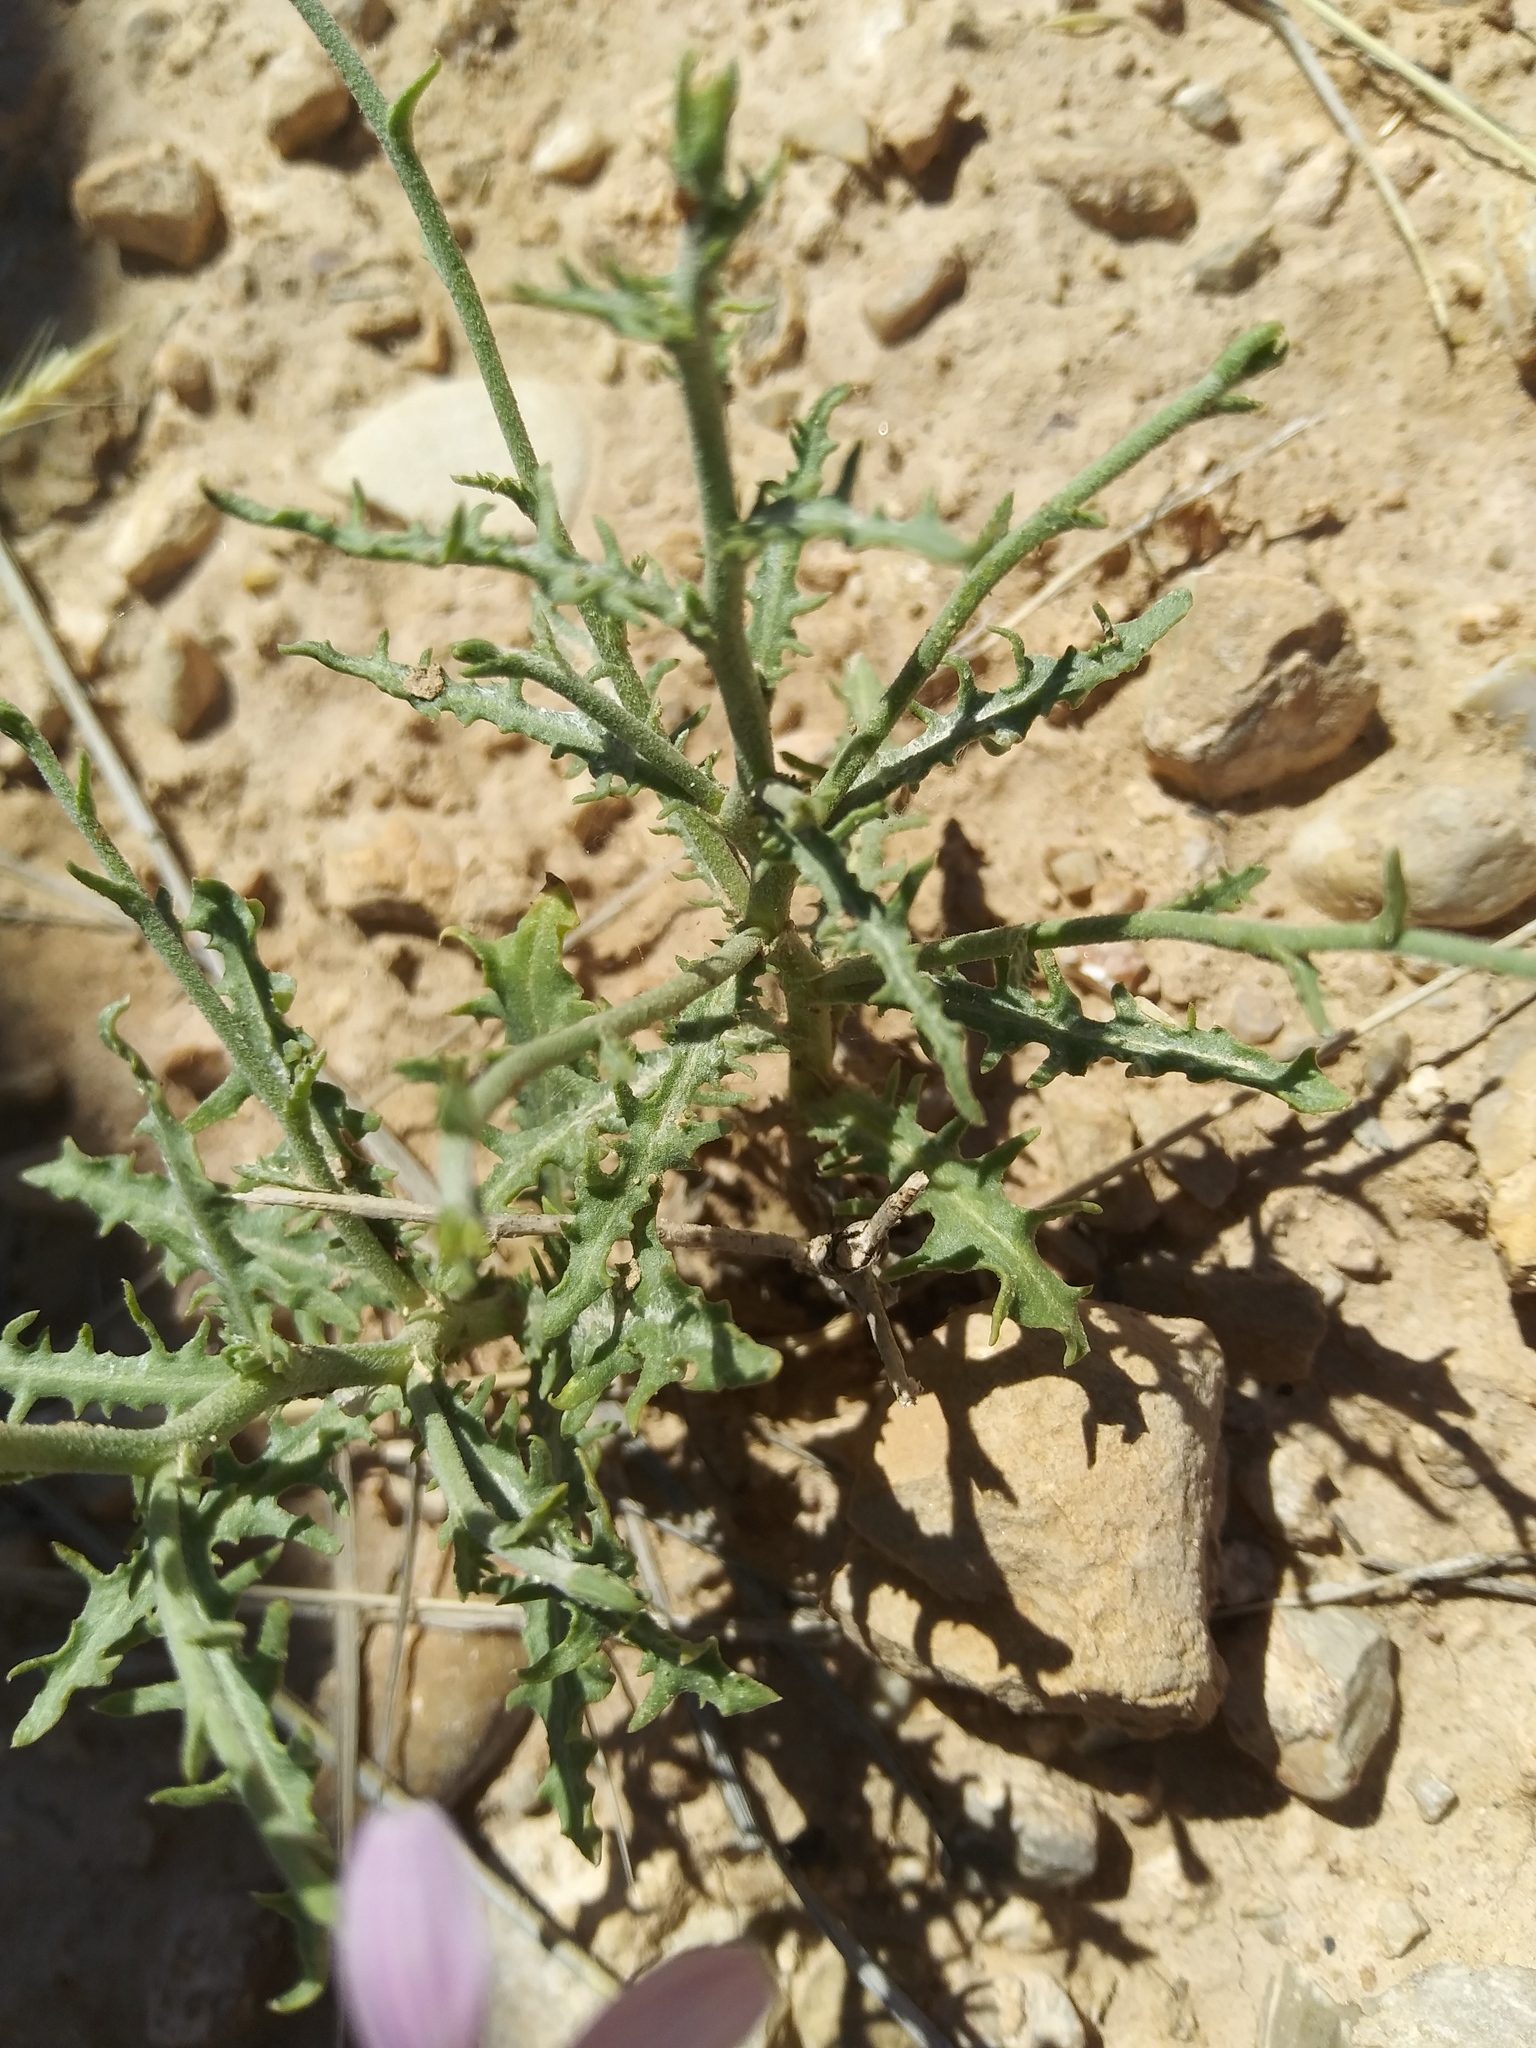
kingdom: Plantae
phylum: Tracheophyta
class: Magnoliopsida
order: Asterales
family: Asteraceae
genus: Stephanomeria
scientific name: Stephanomeria runcinata
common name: Desert wirelettuce
